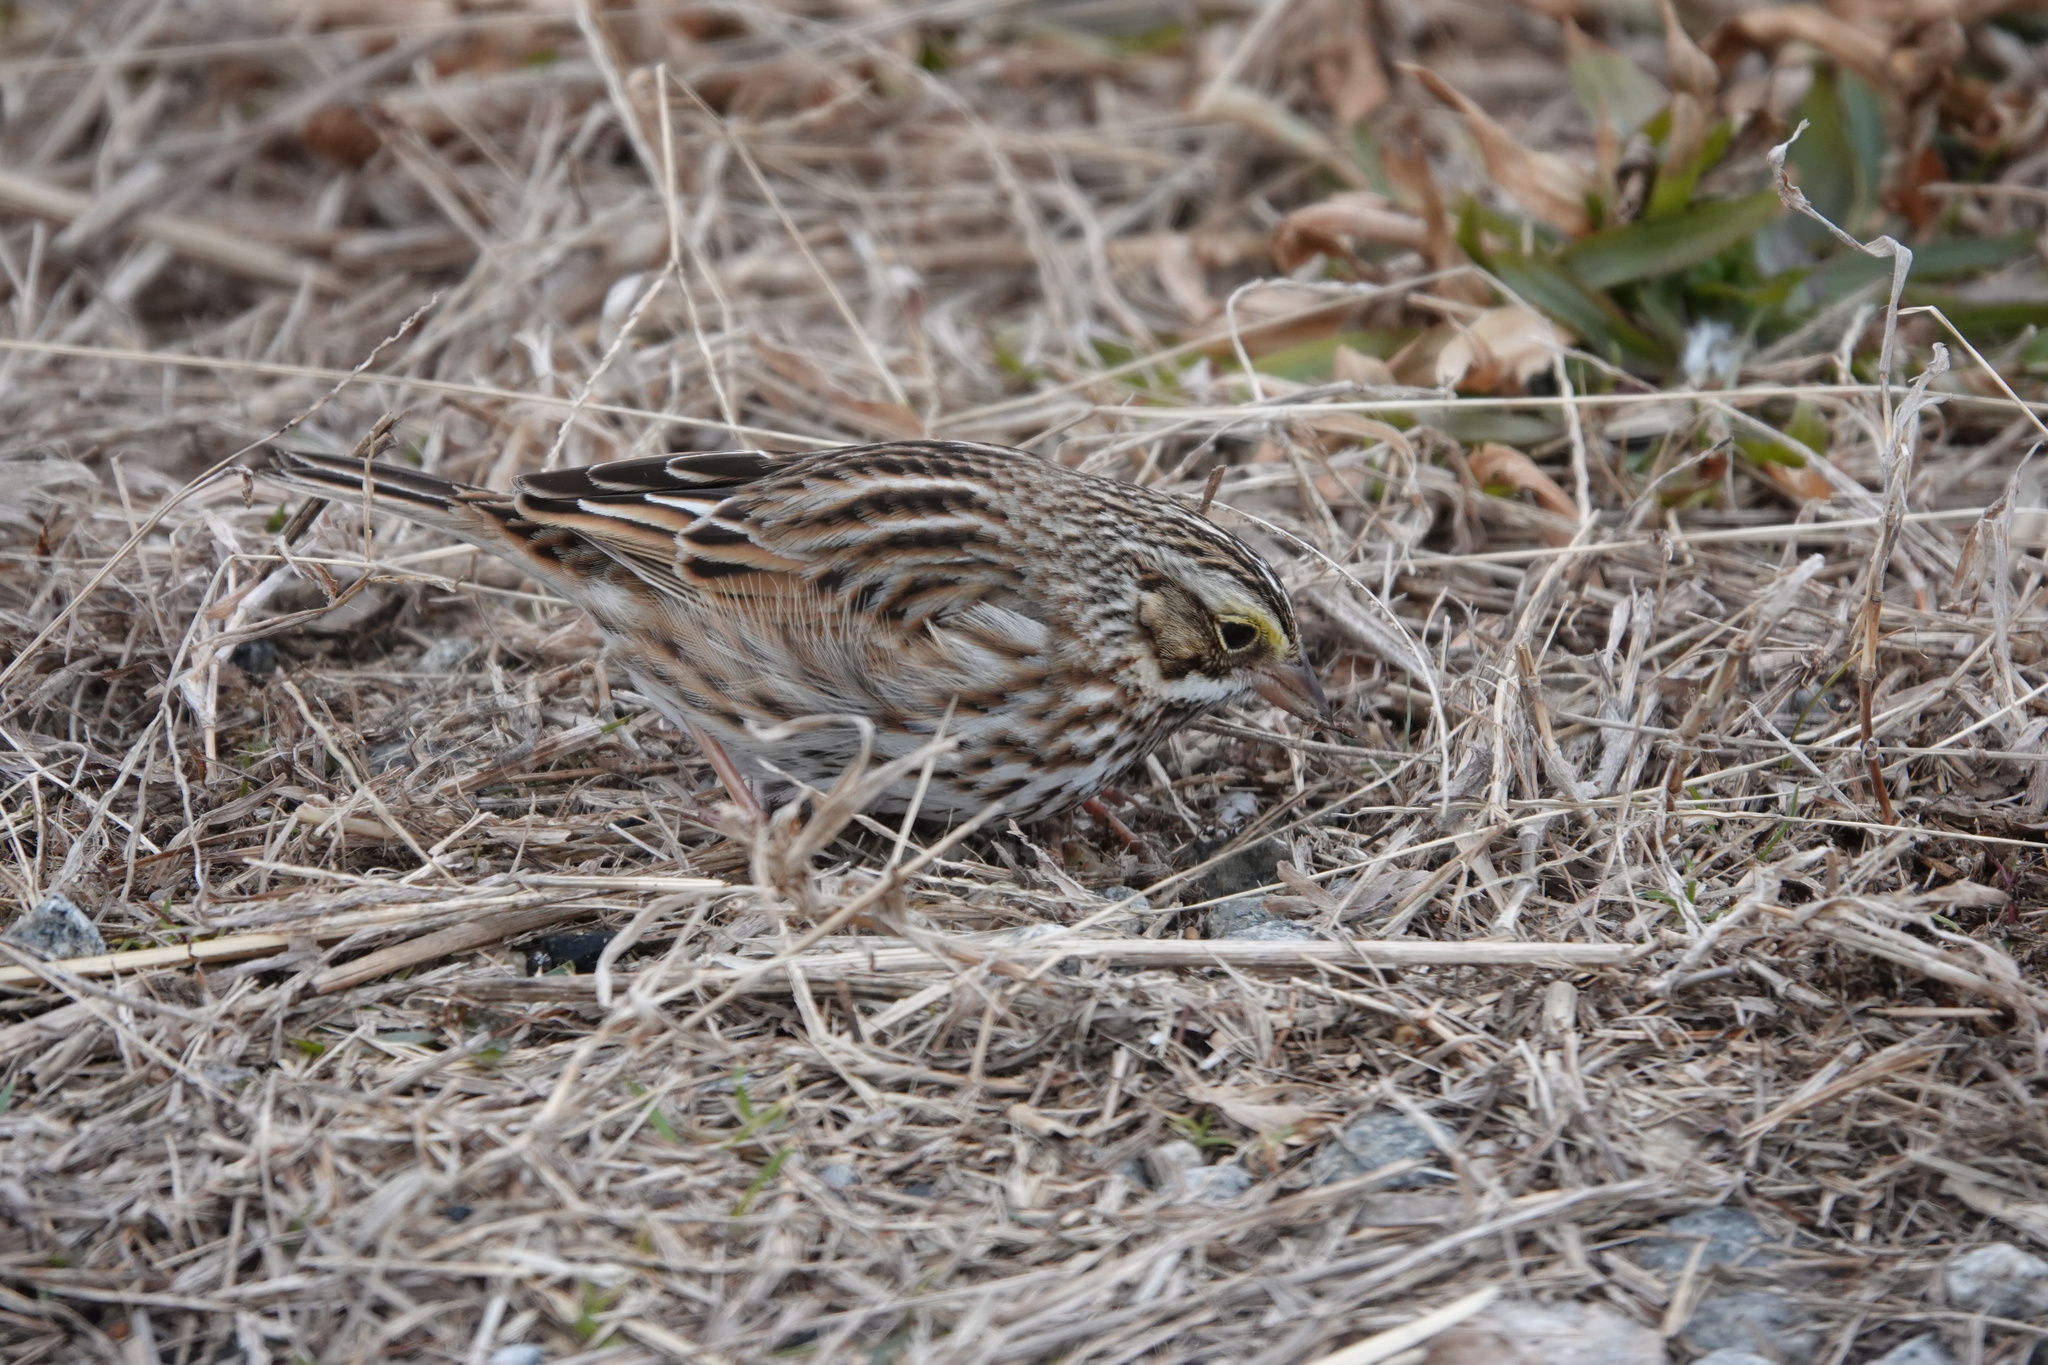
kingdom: Animalia
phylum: Chordata
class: Aves
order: Passeriformes
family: Passerellidae
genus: Passerculus
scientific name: Passerculus sandwichensis
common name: Savannah sparrow
